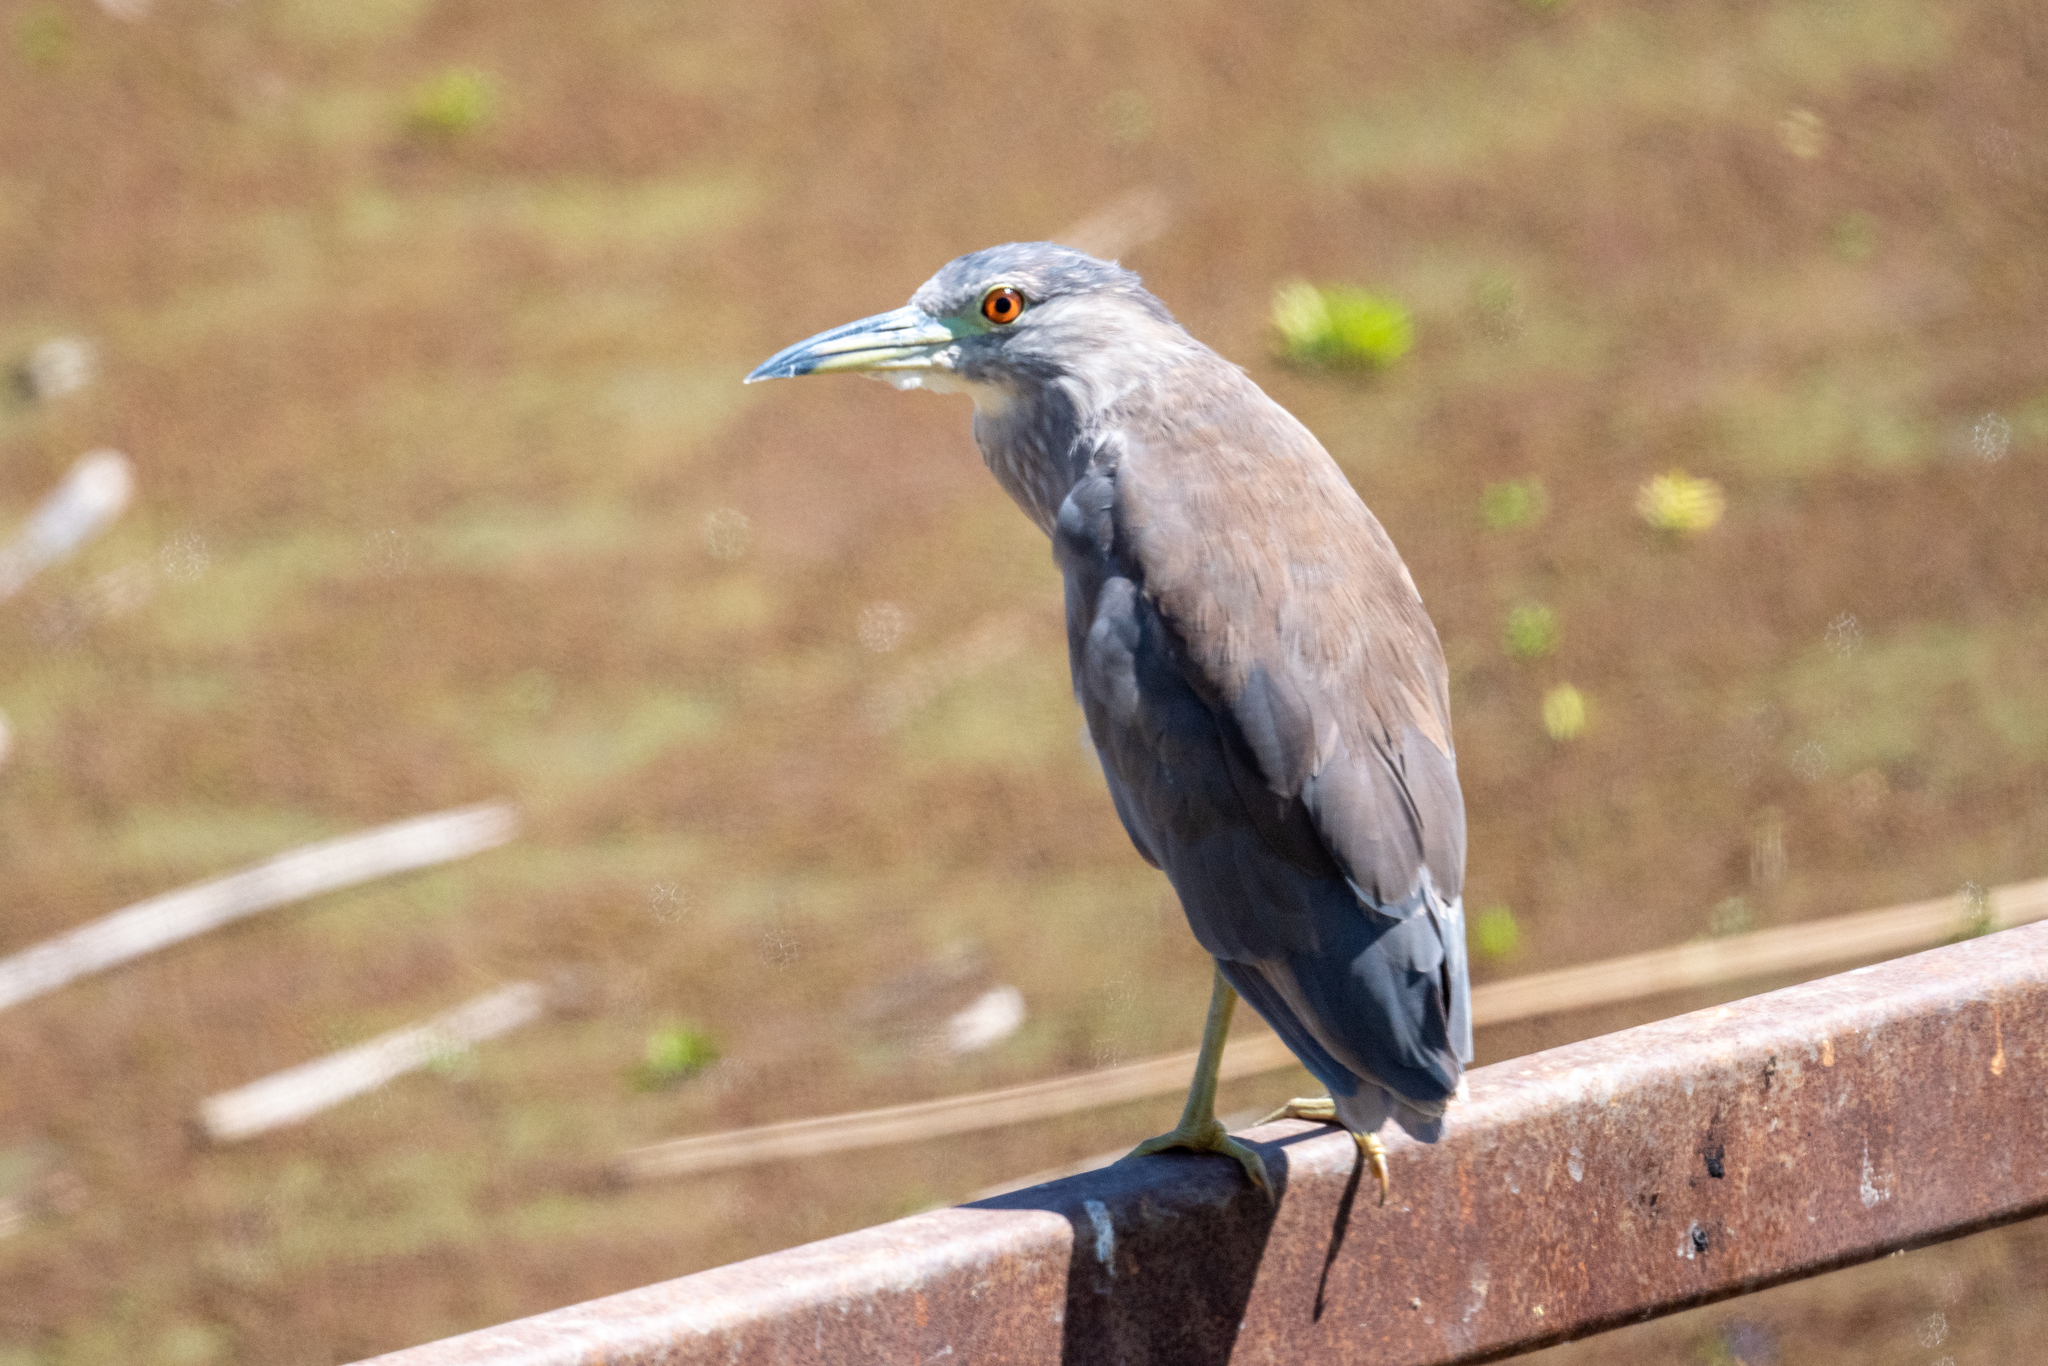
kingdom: Animalia
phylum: Chordata
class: Aves
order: Pelecaniformes
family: Ardeidae
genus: Nycticorax
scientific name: Nycticorax nycticorax
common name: Black-crowned night heron
